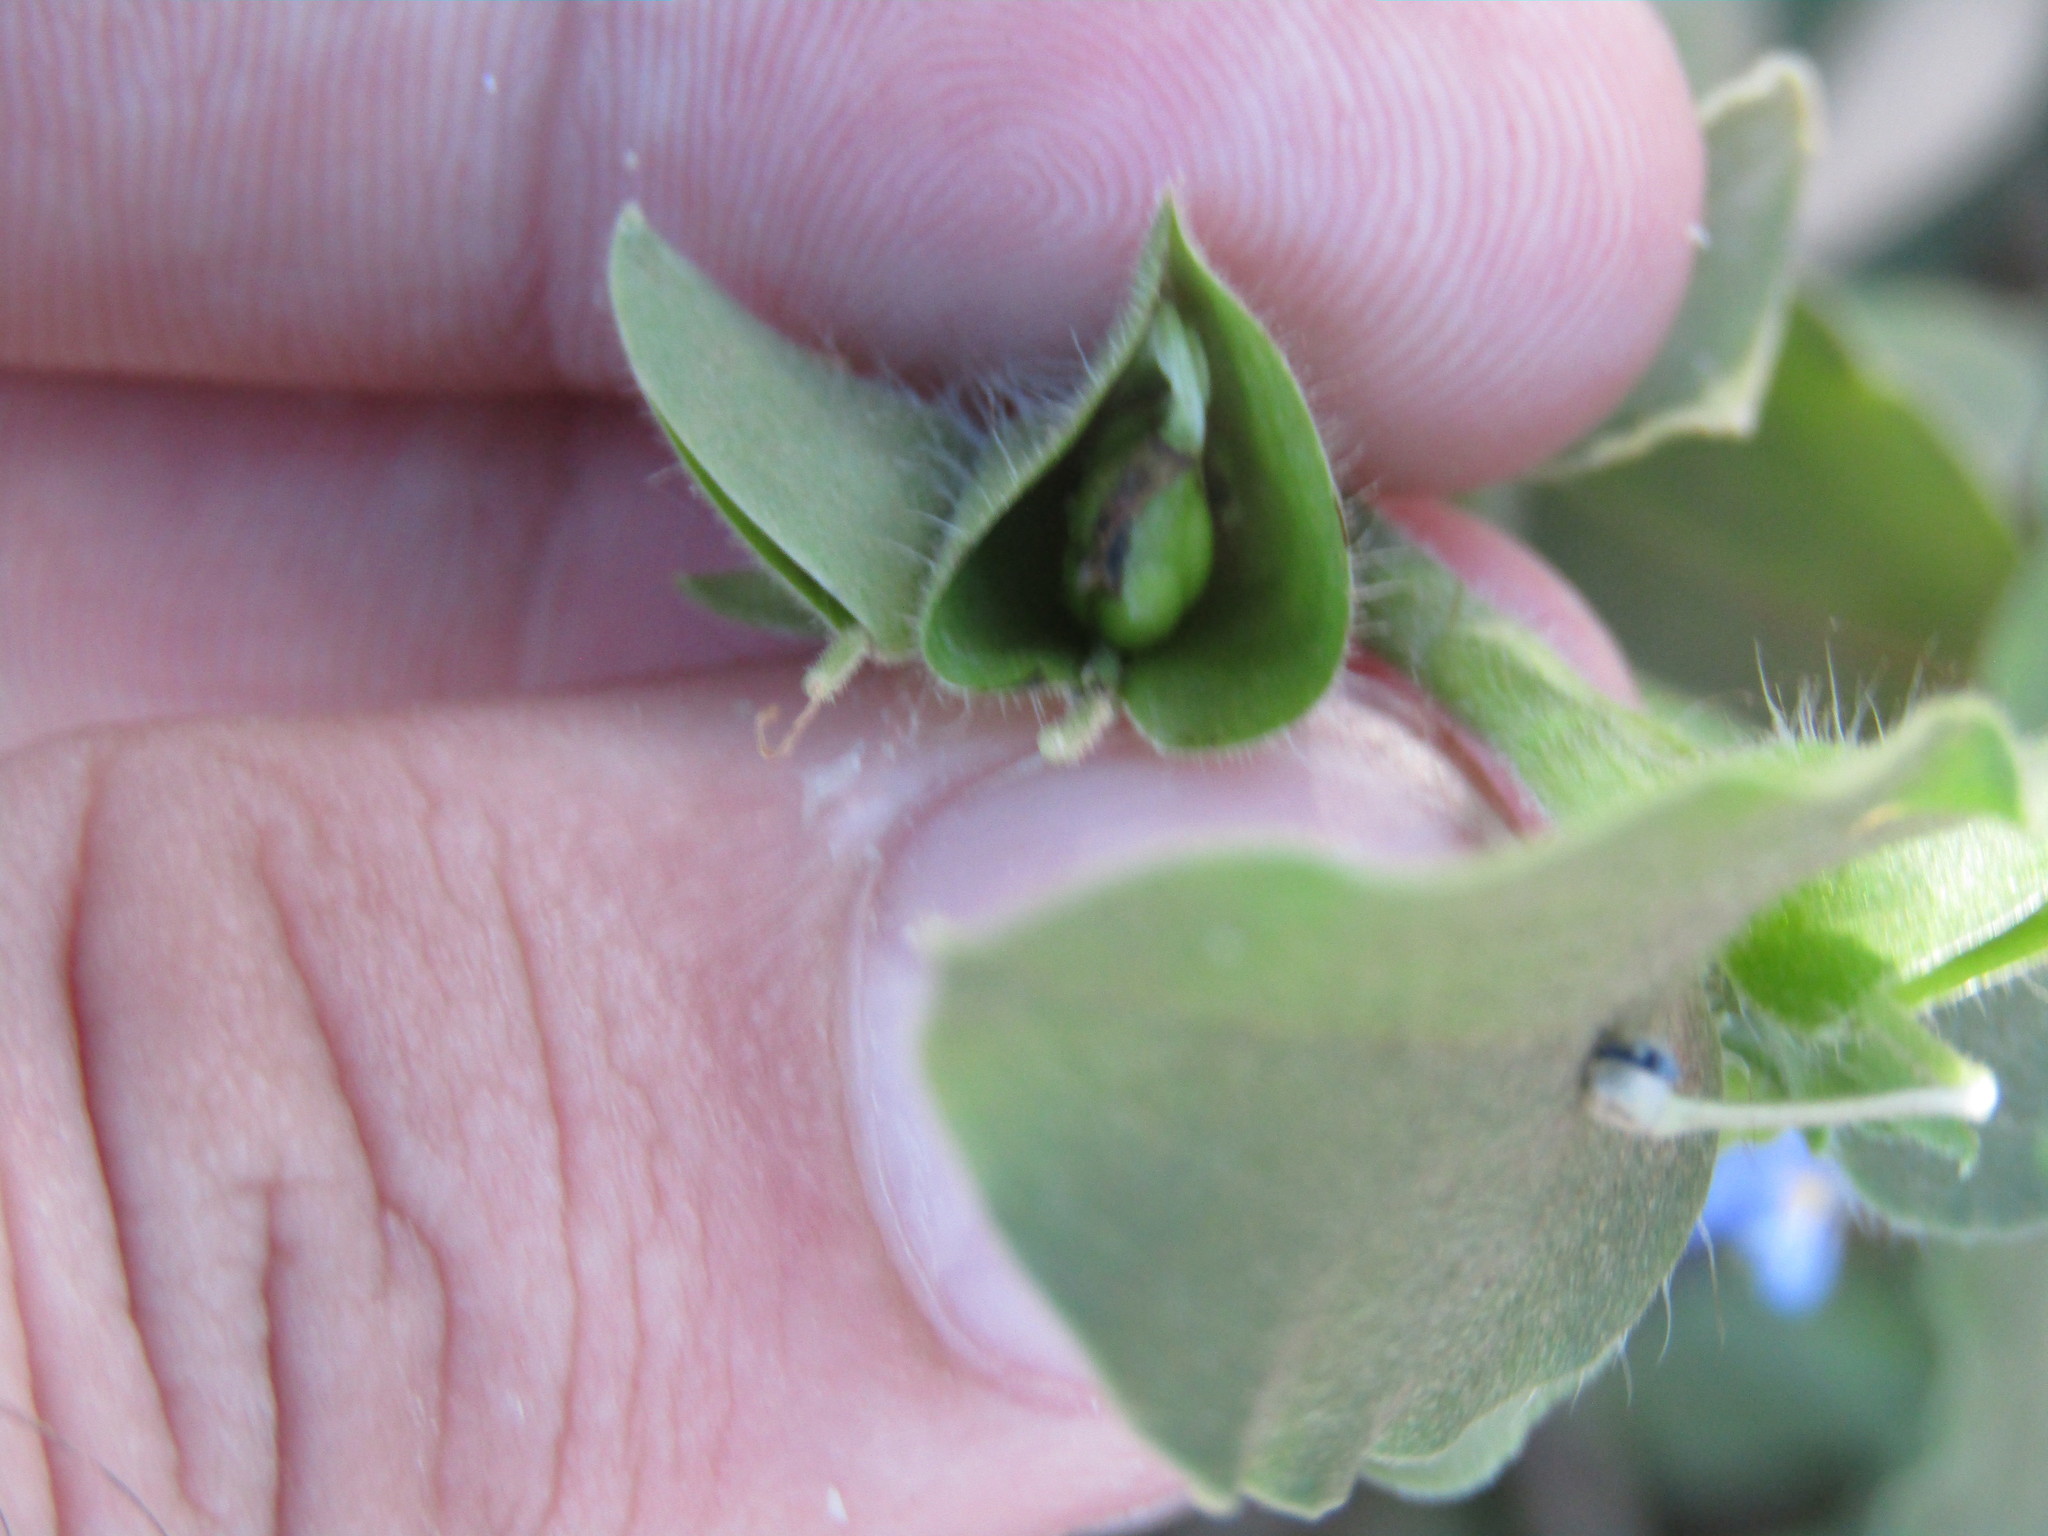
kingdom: Plantae
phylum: Tracheophyta
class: Liliopsida
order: Commelinales
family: Commelinaceae
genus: Commelina
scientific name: Commelina benghalensis
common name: Jio
